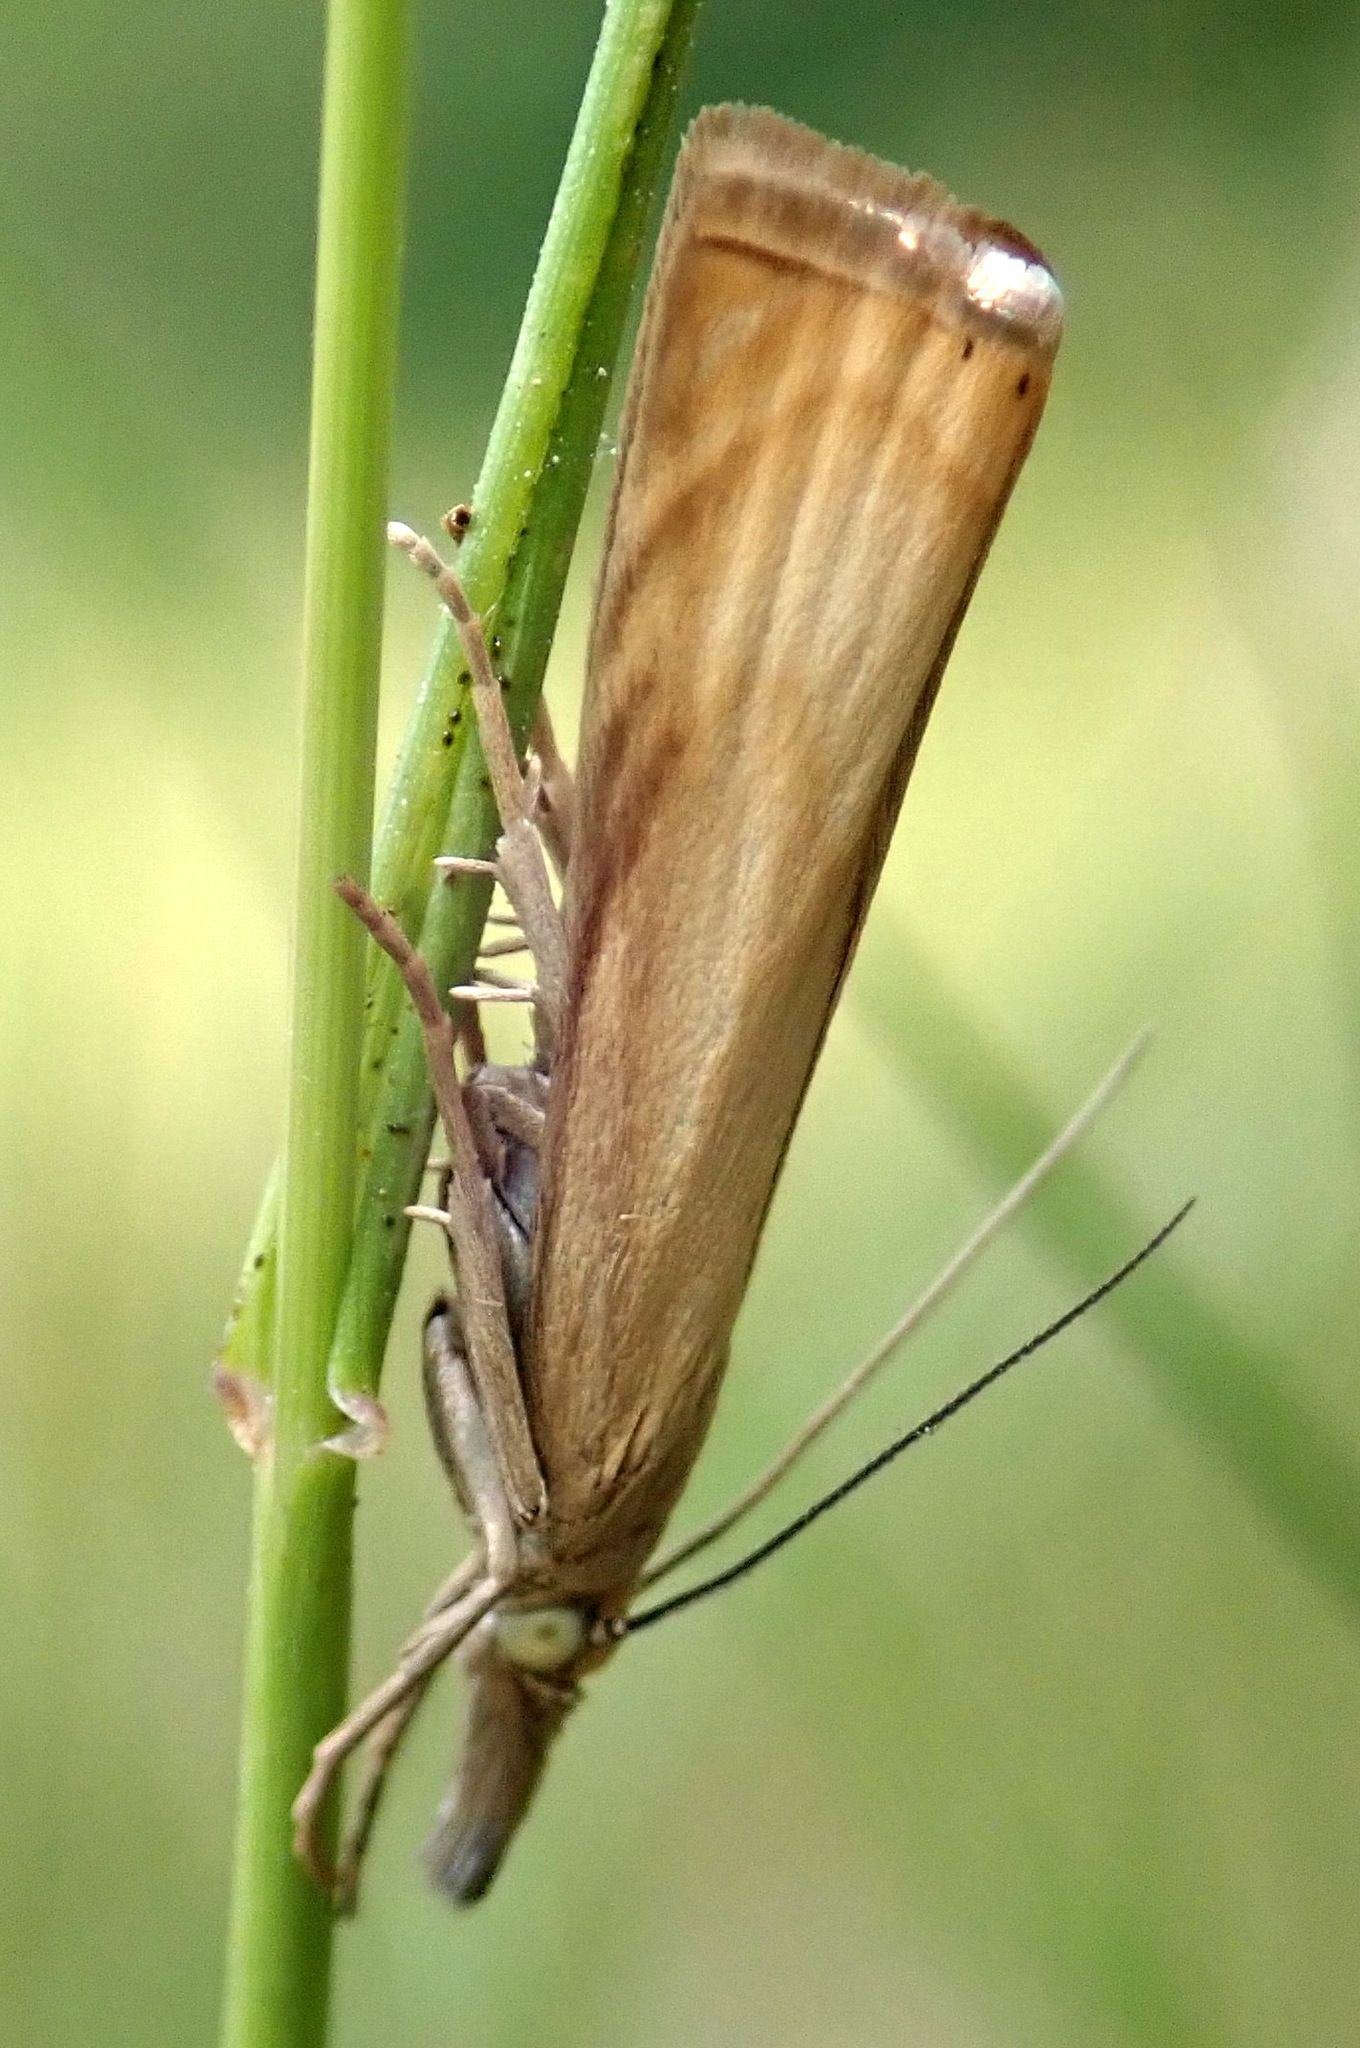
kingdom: Animalia
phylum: Arthropoda
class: Insecta
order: Lepidoptera
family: Crambidae
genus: Chrysoteuchia
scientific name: Chrysoteuchia culmella
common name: Garden grass-veneer
